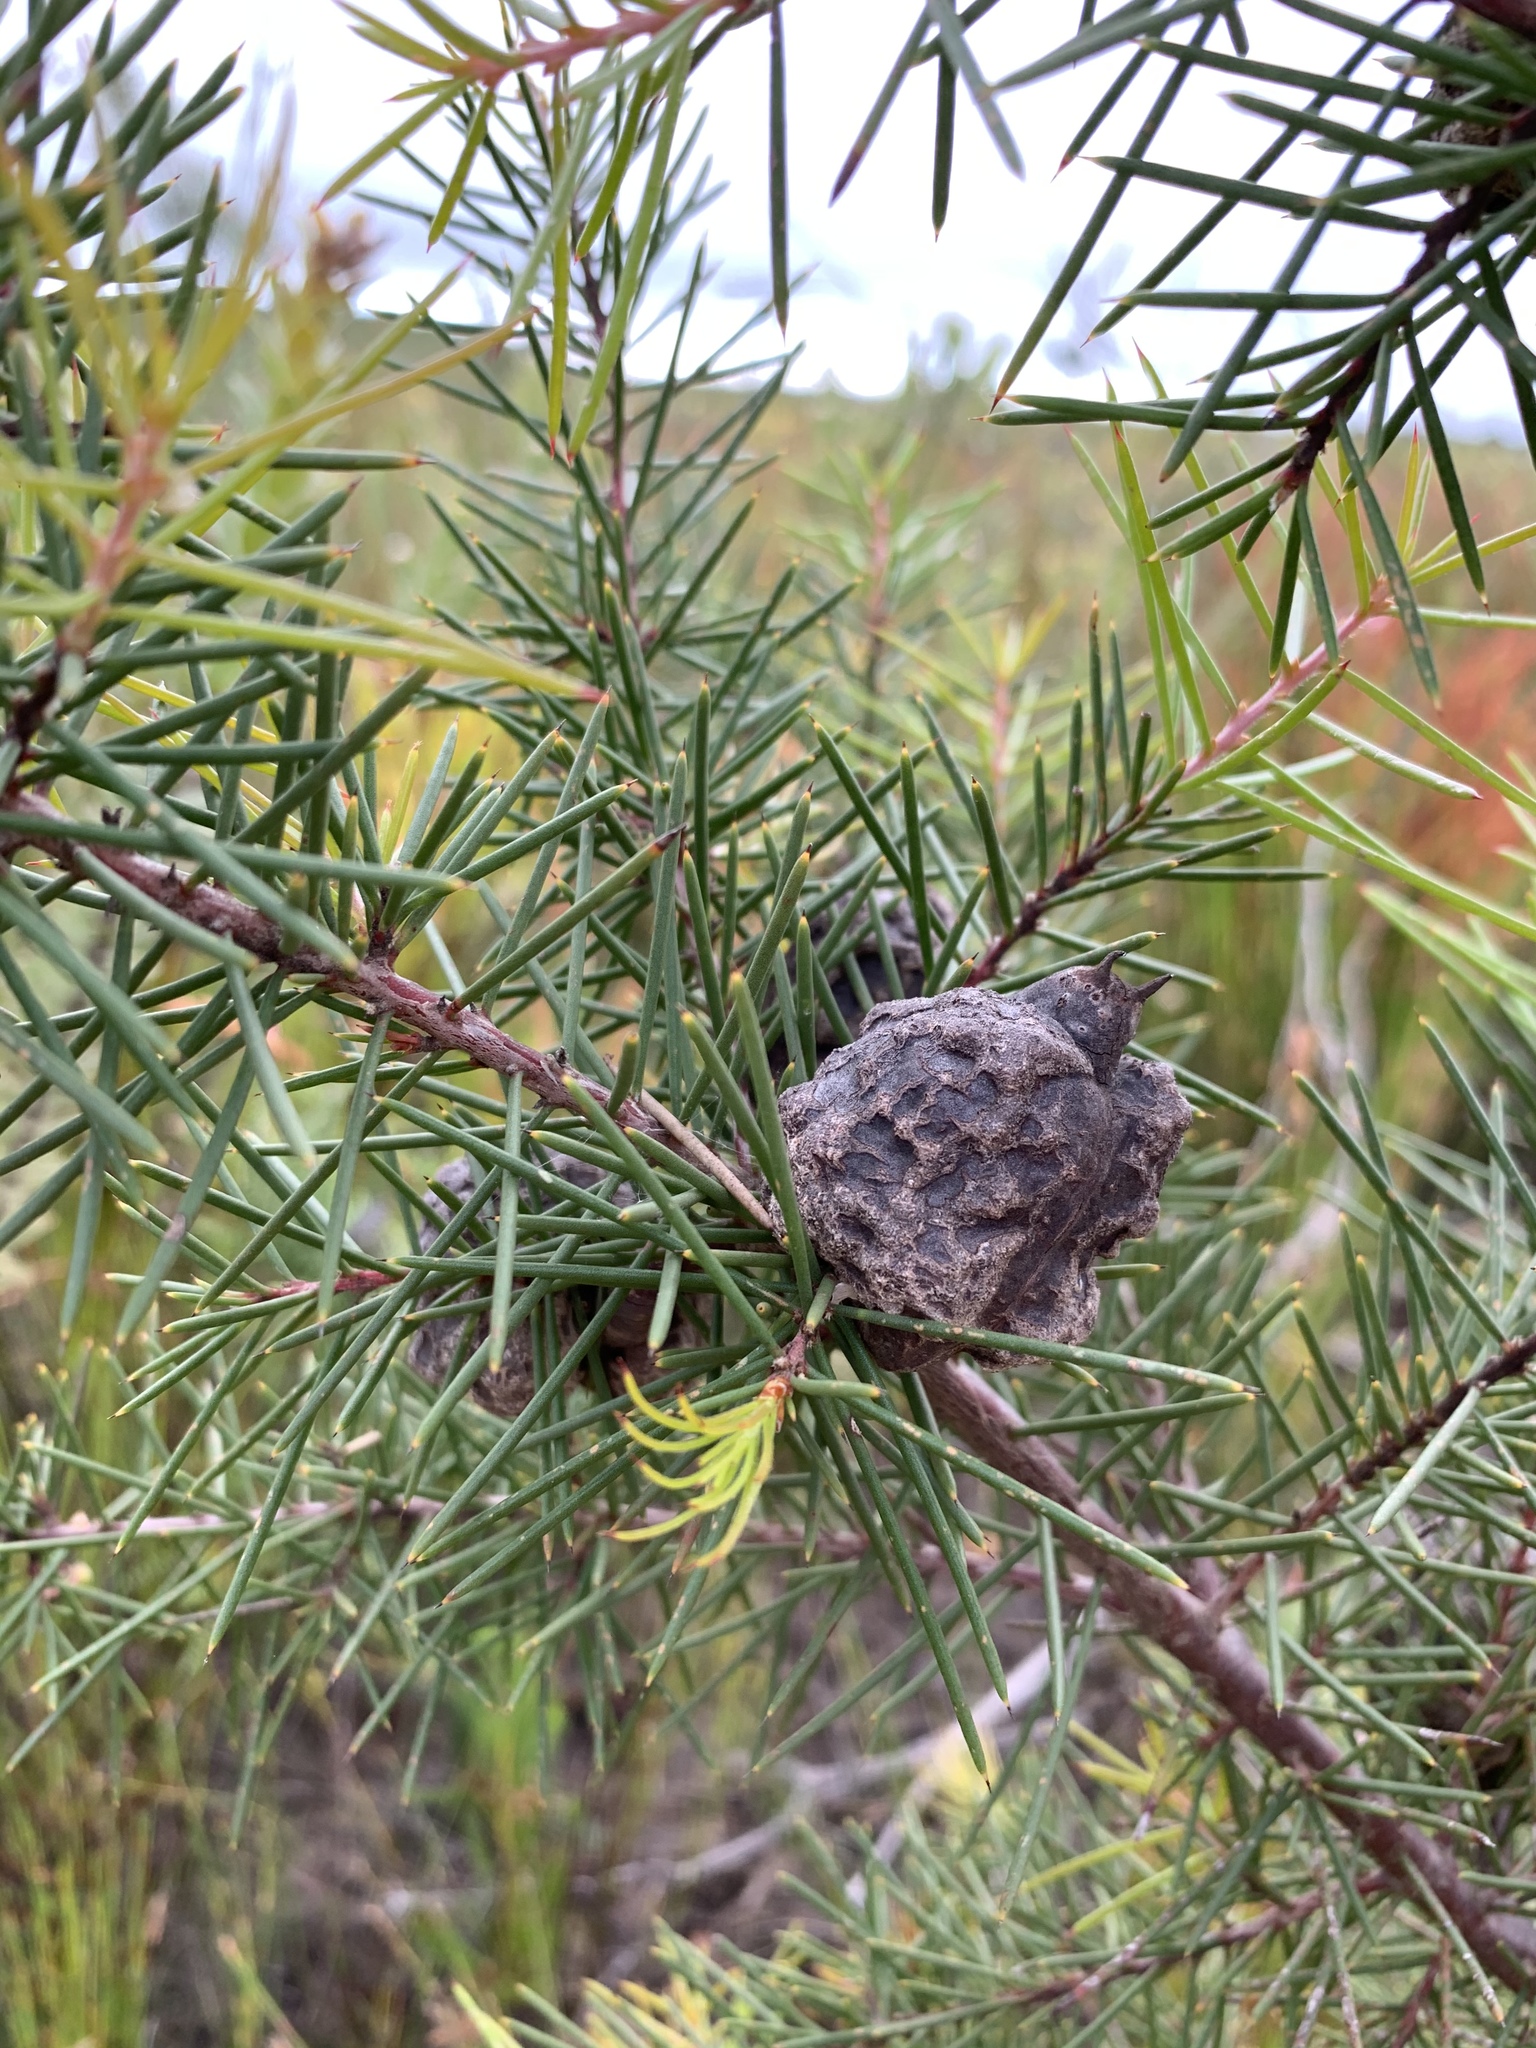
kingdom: Plantae
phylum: Tracheophyta
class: Magnoliopsida
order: Proteales
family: Proteaceae
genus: Hakea
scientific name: Hakea sericea
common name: Needle bush
